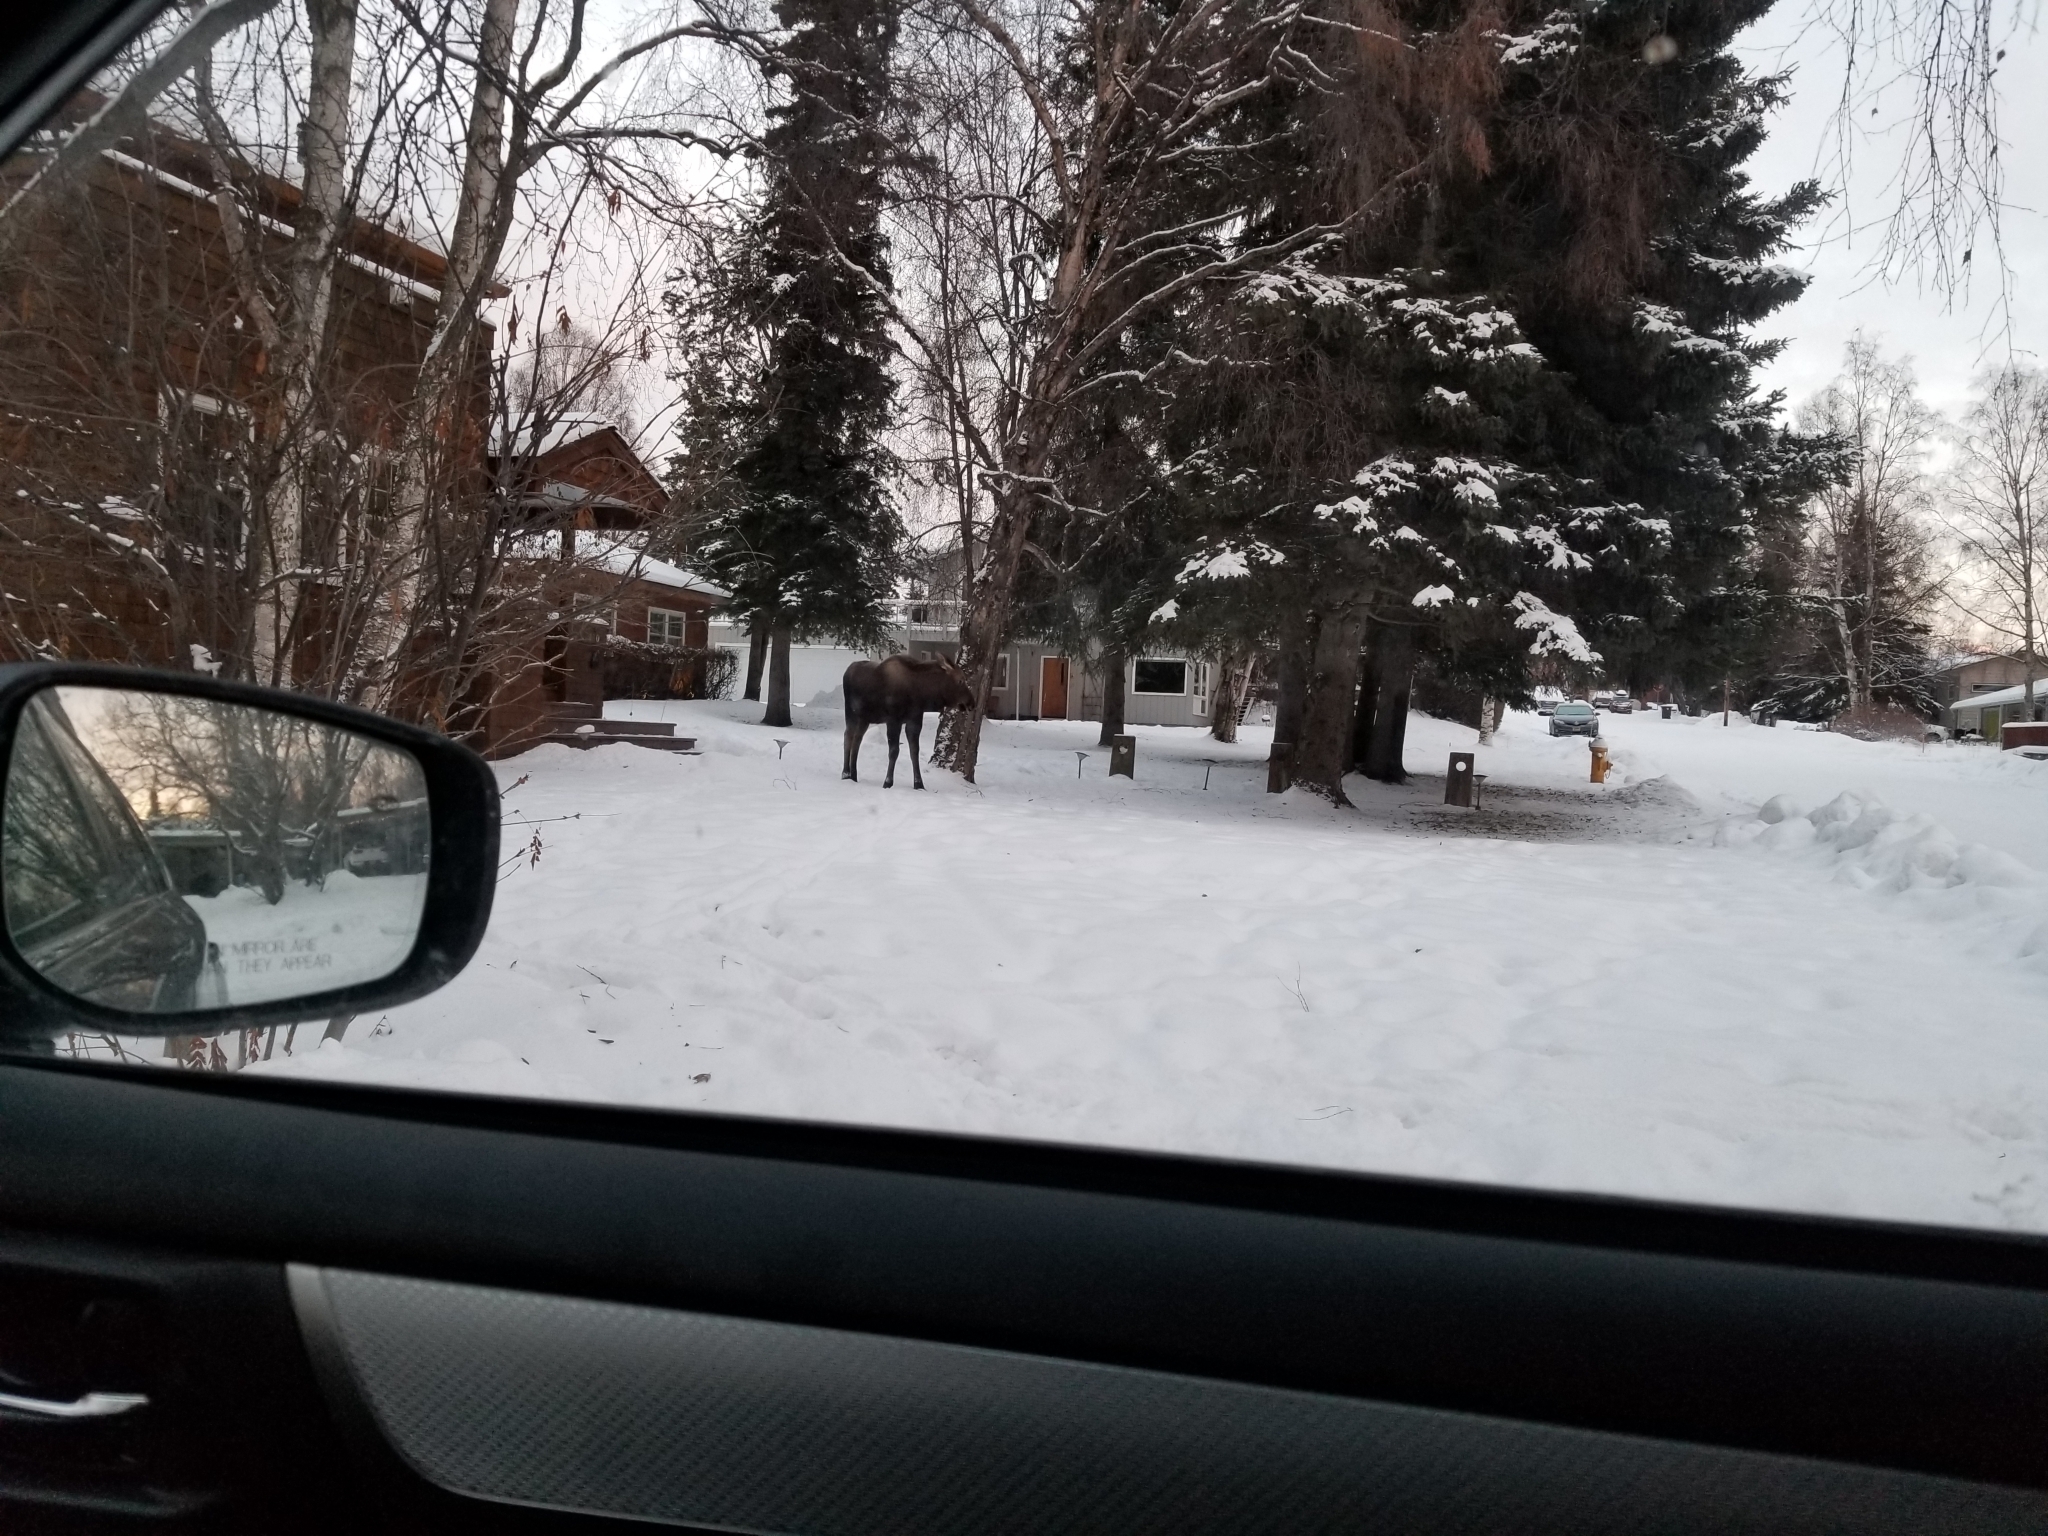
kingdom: Animalia
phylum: Chordata
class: Mammalia
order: Artiodactyla
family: Cervidae
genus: Alces
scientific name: Alces alces
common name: Moose
